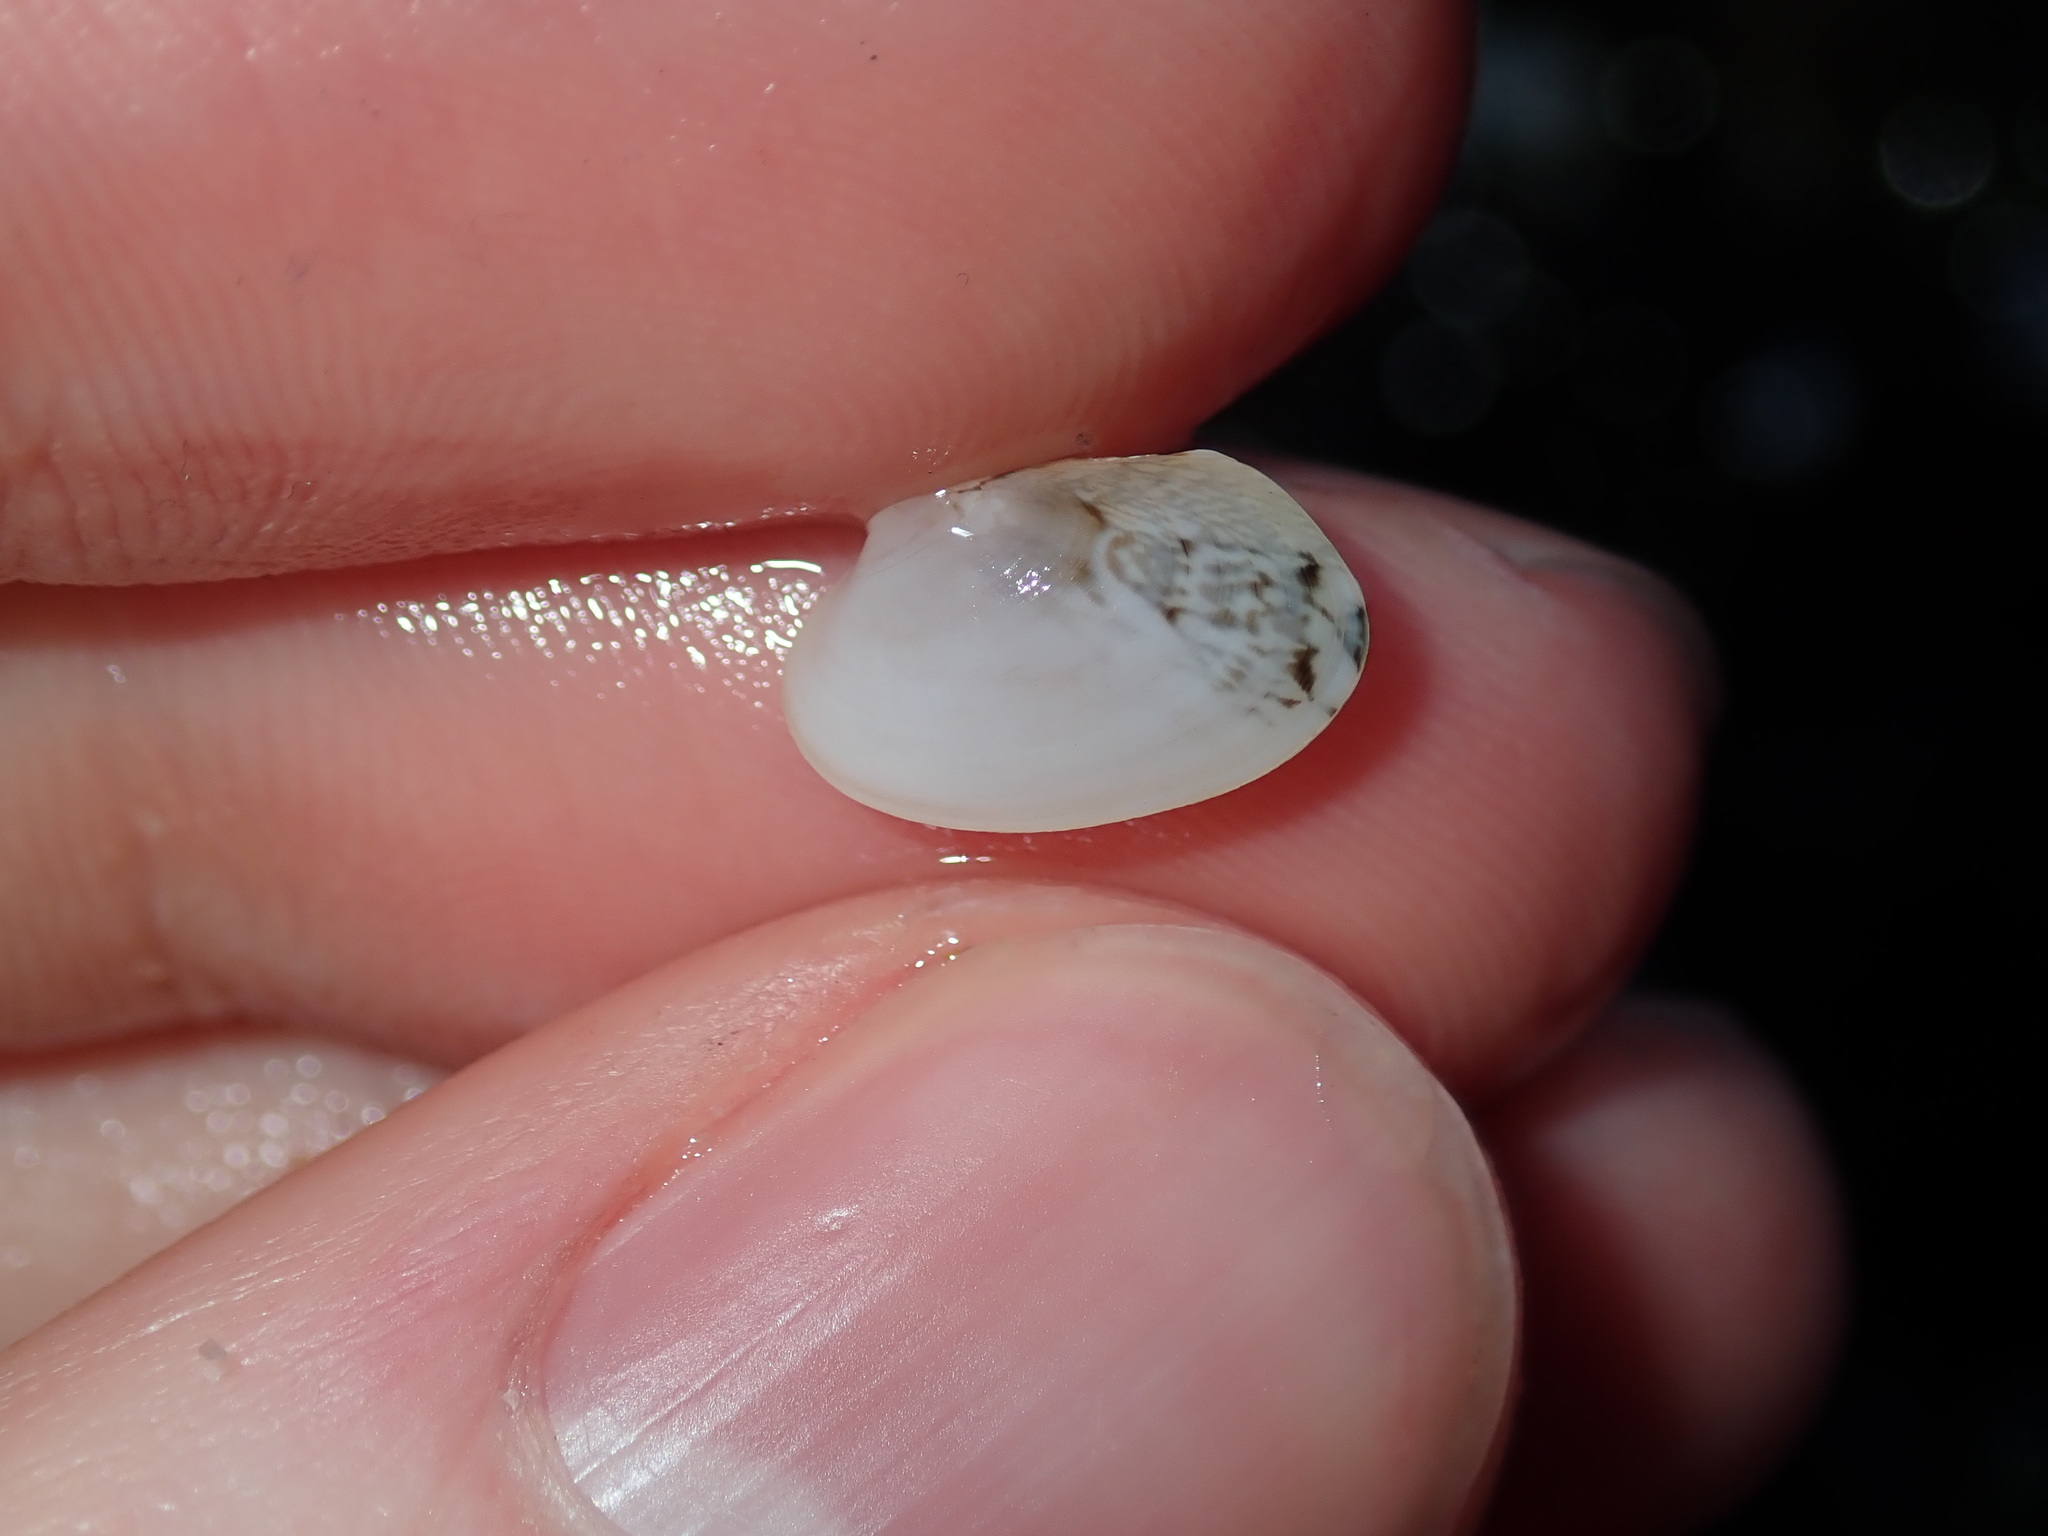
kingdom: Animalia
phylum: Mollusca
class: Bivalvia
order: Venerida
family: Veneridae
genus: Venerupis
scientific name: Venerupis anomala
